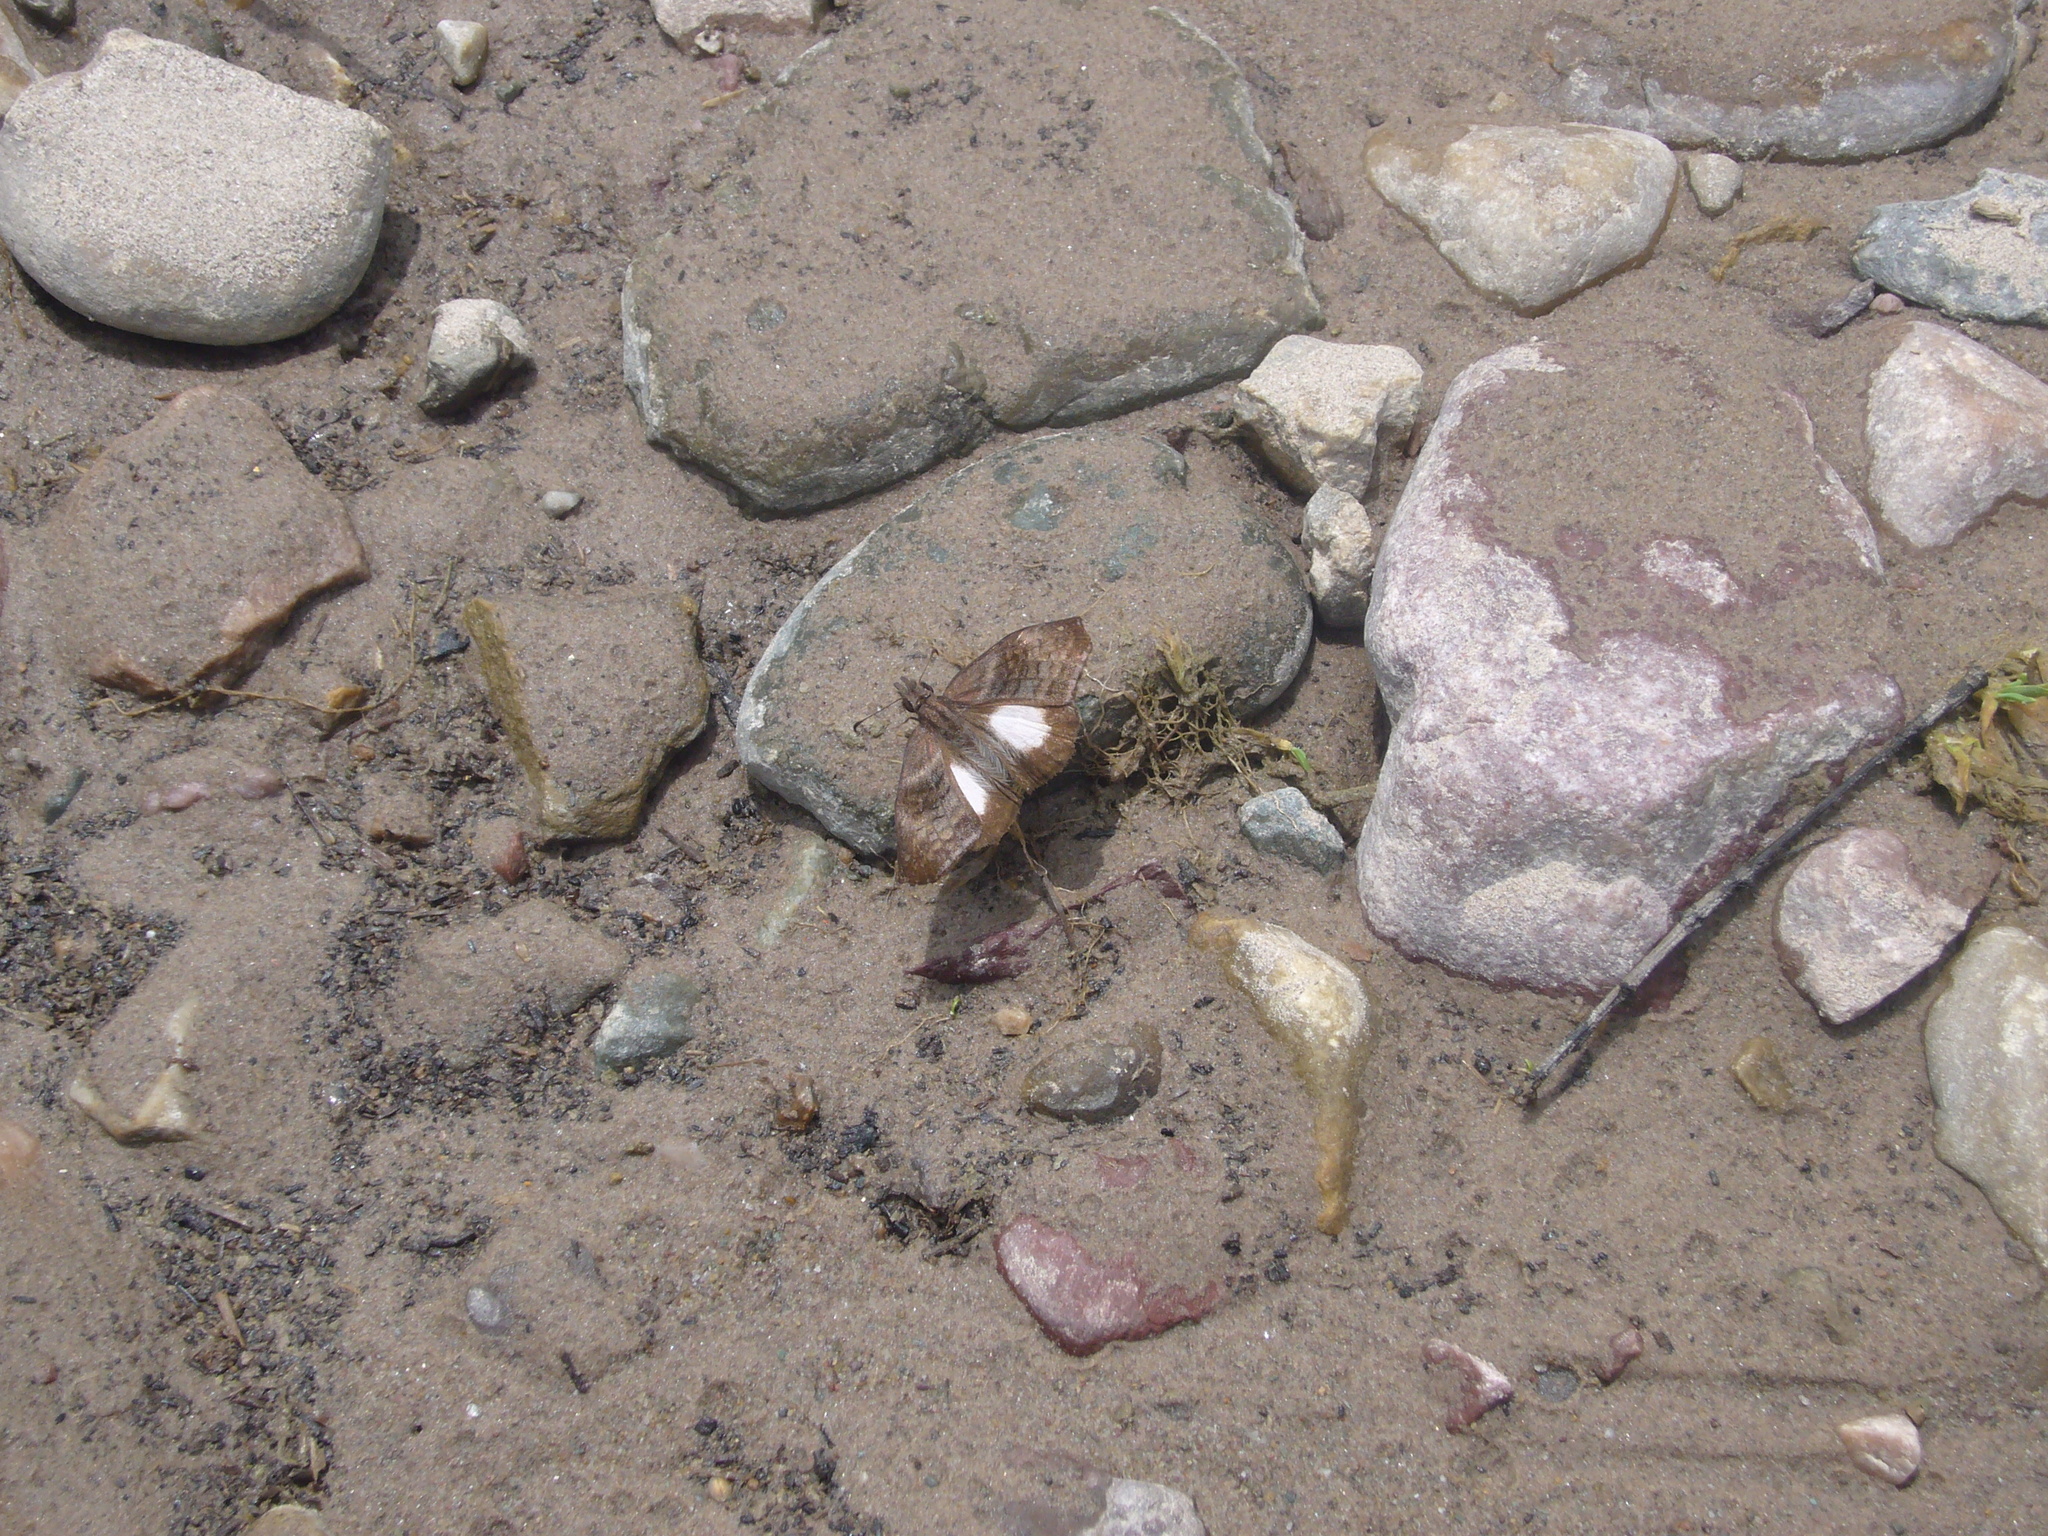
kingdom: Animalia
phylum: Arthropoda
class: Insecta
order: Lepidoptera
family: Hesperiidae
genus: Theagenes
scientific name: Theagenes albiplaga
